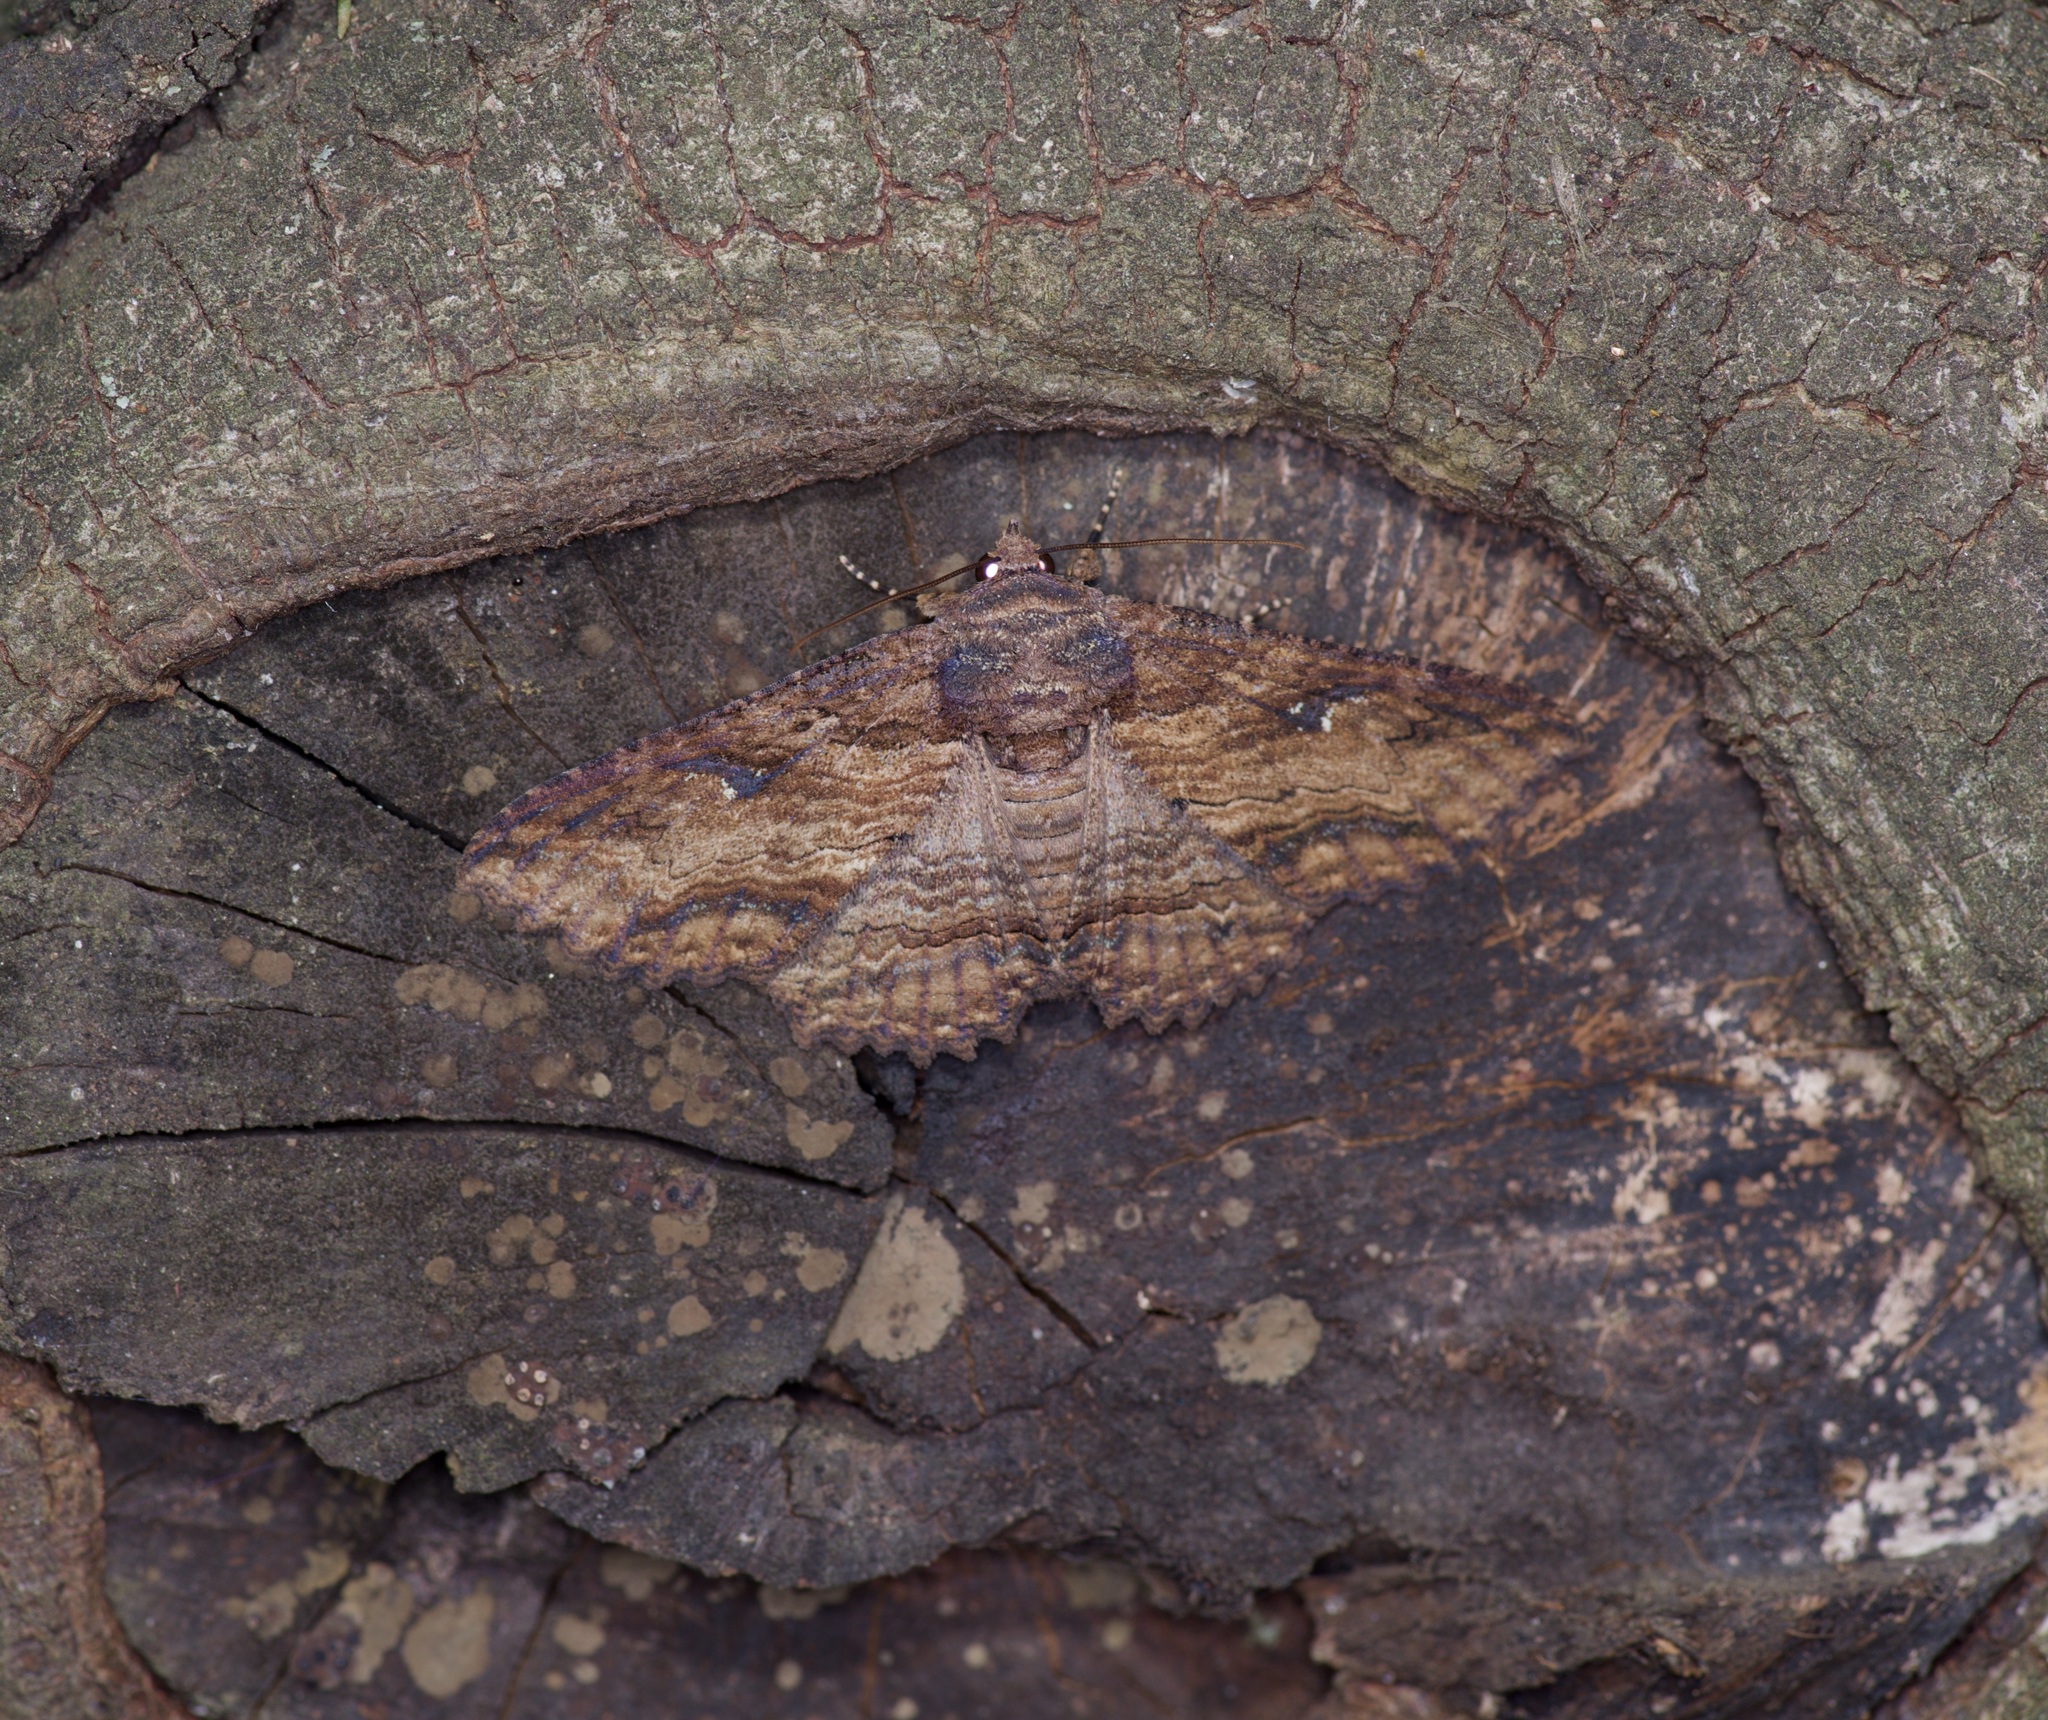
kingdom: Animalia
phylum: Arthropoda
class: Insecta
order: Lepidoptera
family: Erebidae
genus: Zale
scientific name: Zale lunata
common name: Lunate zale moth
